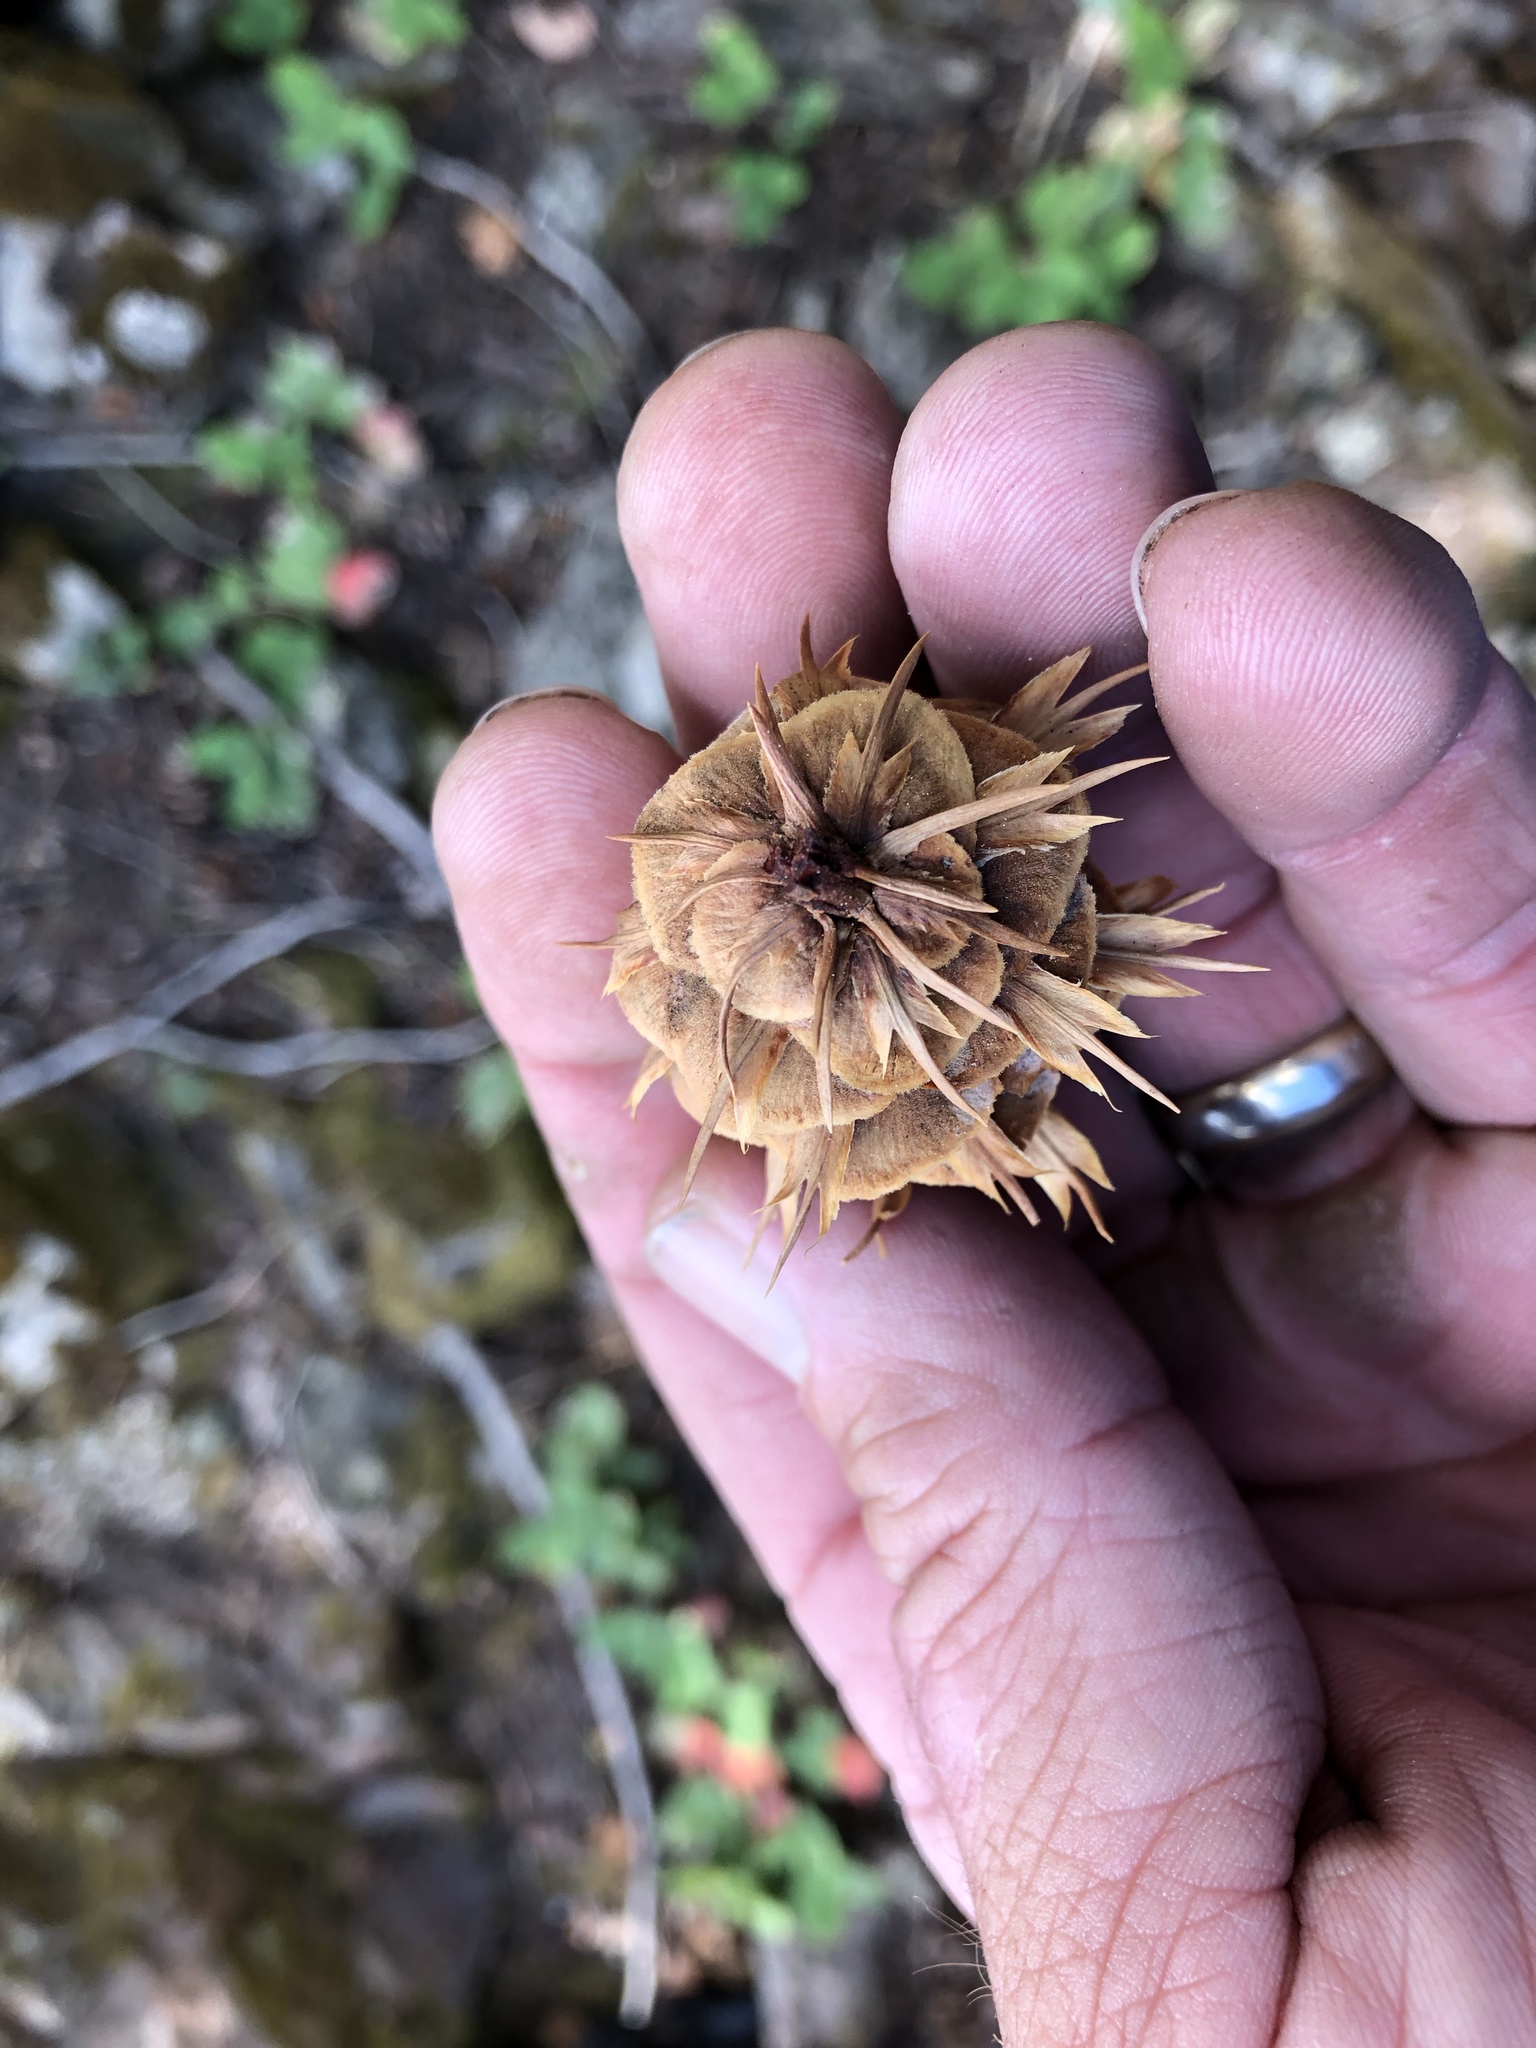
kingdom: Plantae
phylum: Tracheophyta
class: Pinopsida
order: Pinales
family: Pinaceae
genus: Pseudotsuga
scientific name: Pseudotsuga menziesii
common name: Douglas fir
